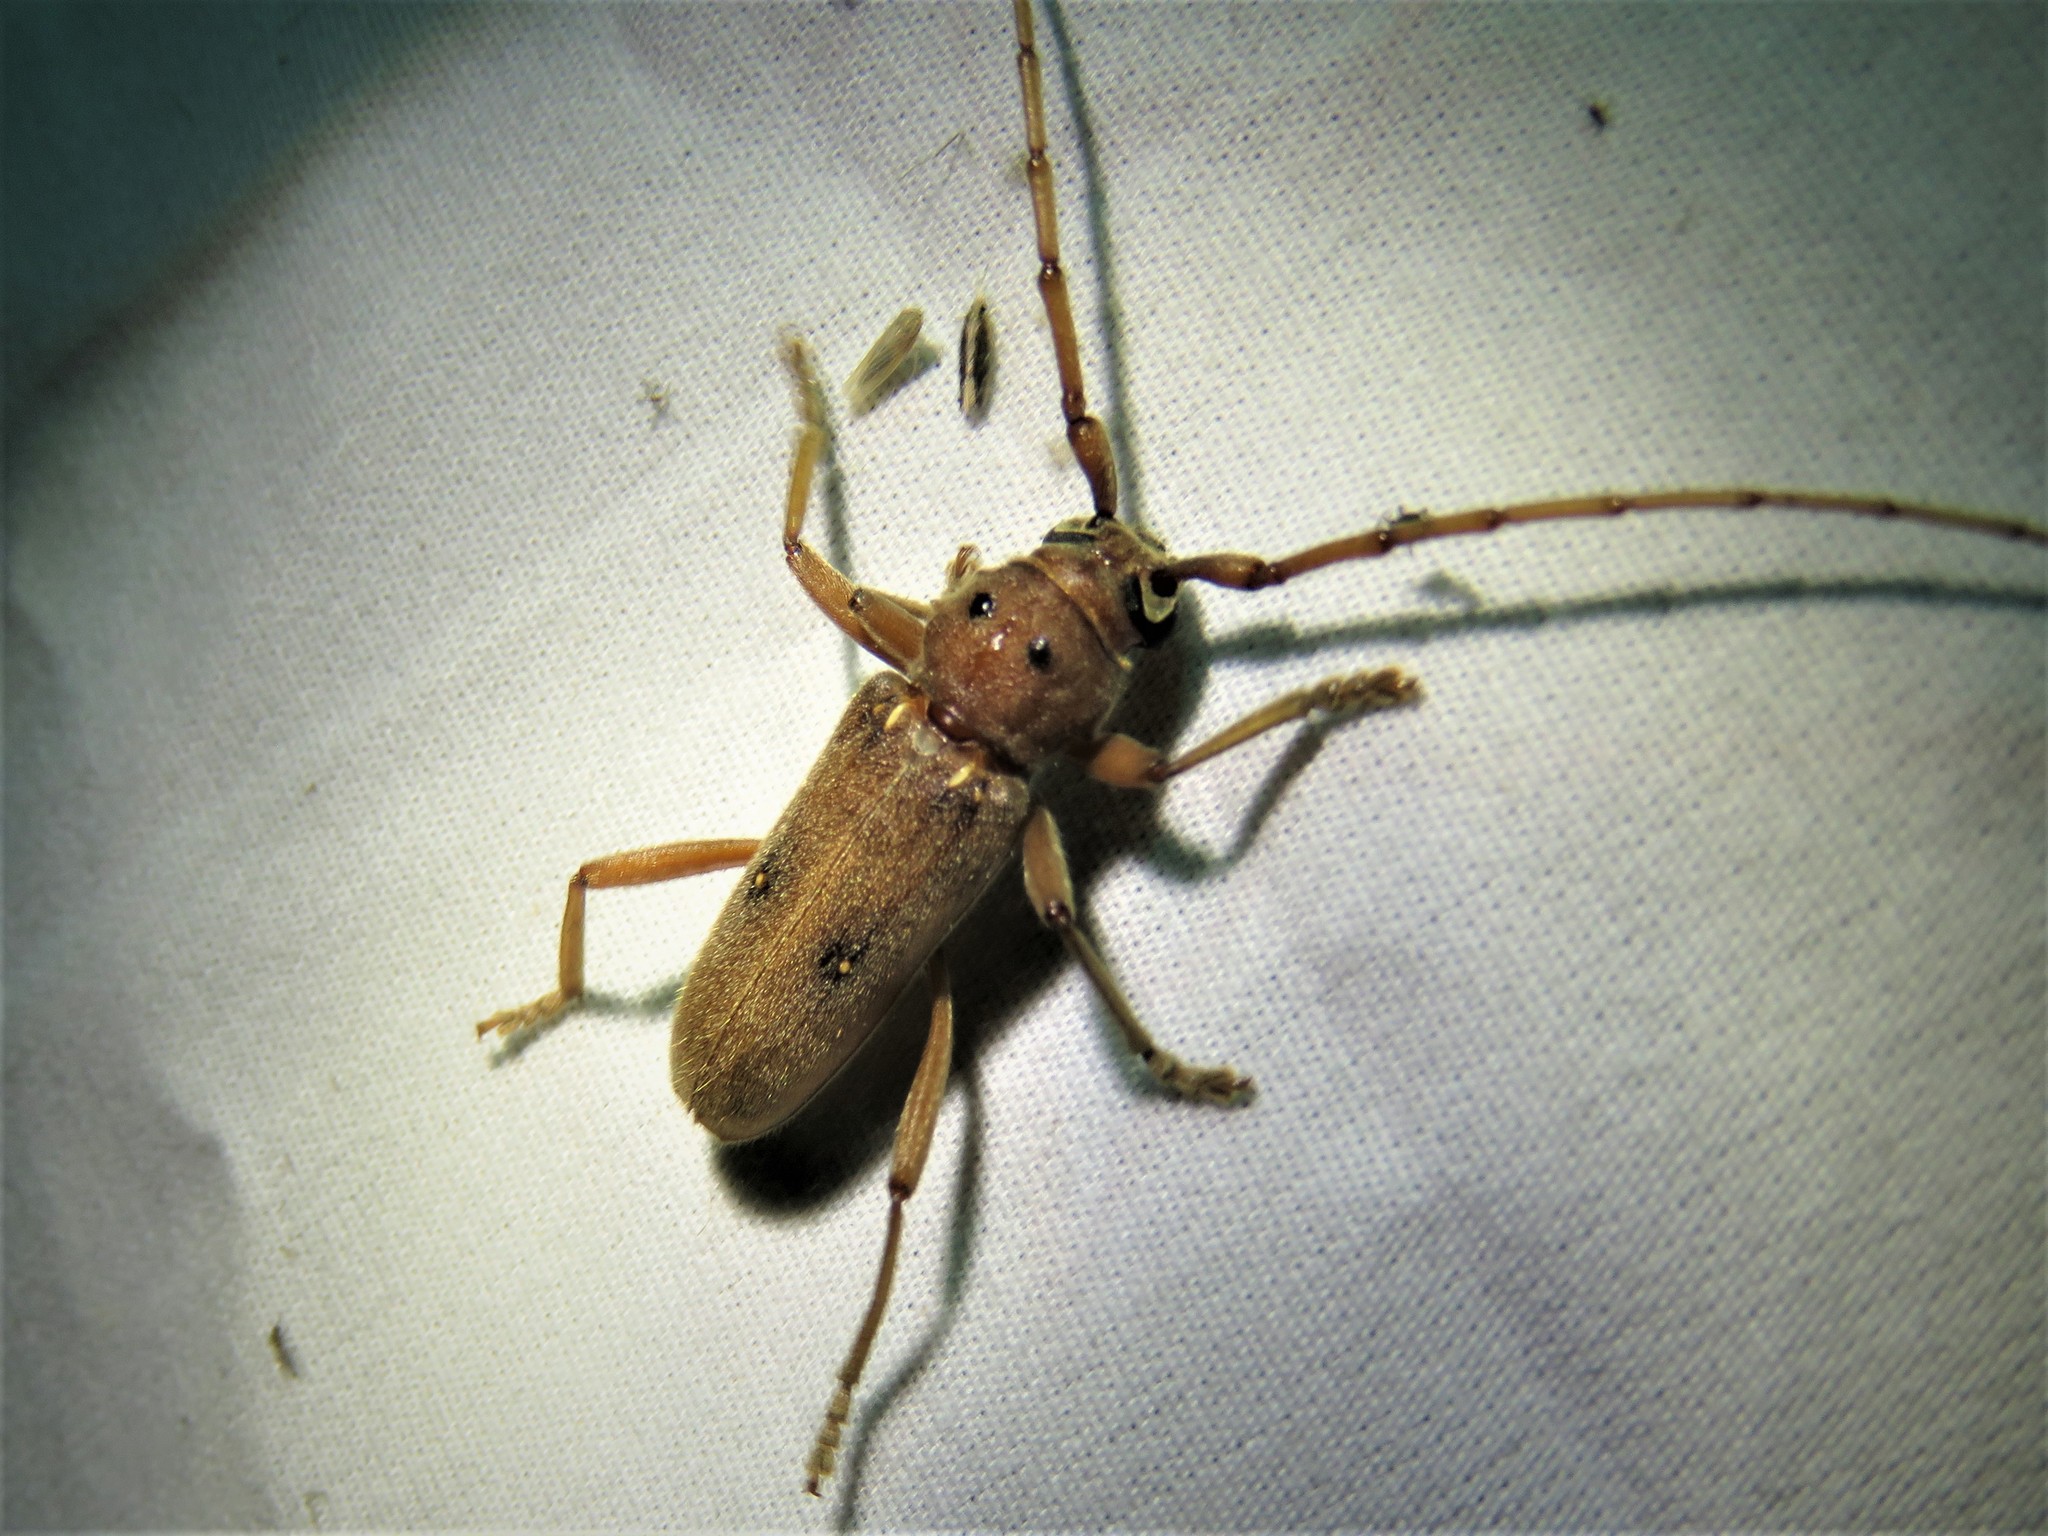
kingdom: Animalia
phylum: Arthropoda
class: Insecta
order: Coleoptera
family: Cerambycidae
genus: Eburia
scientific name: Eburia haldemani
